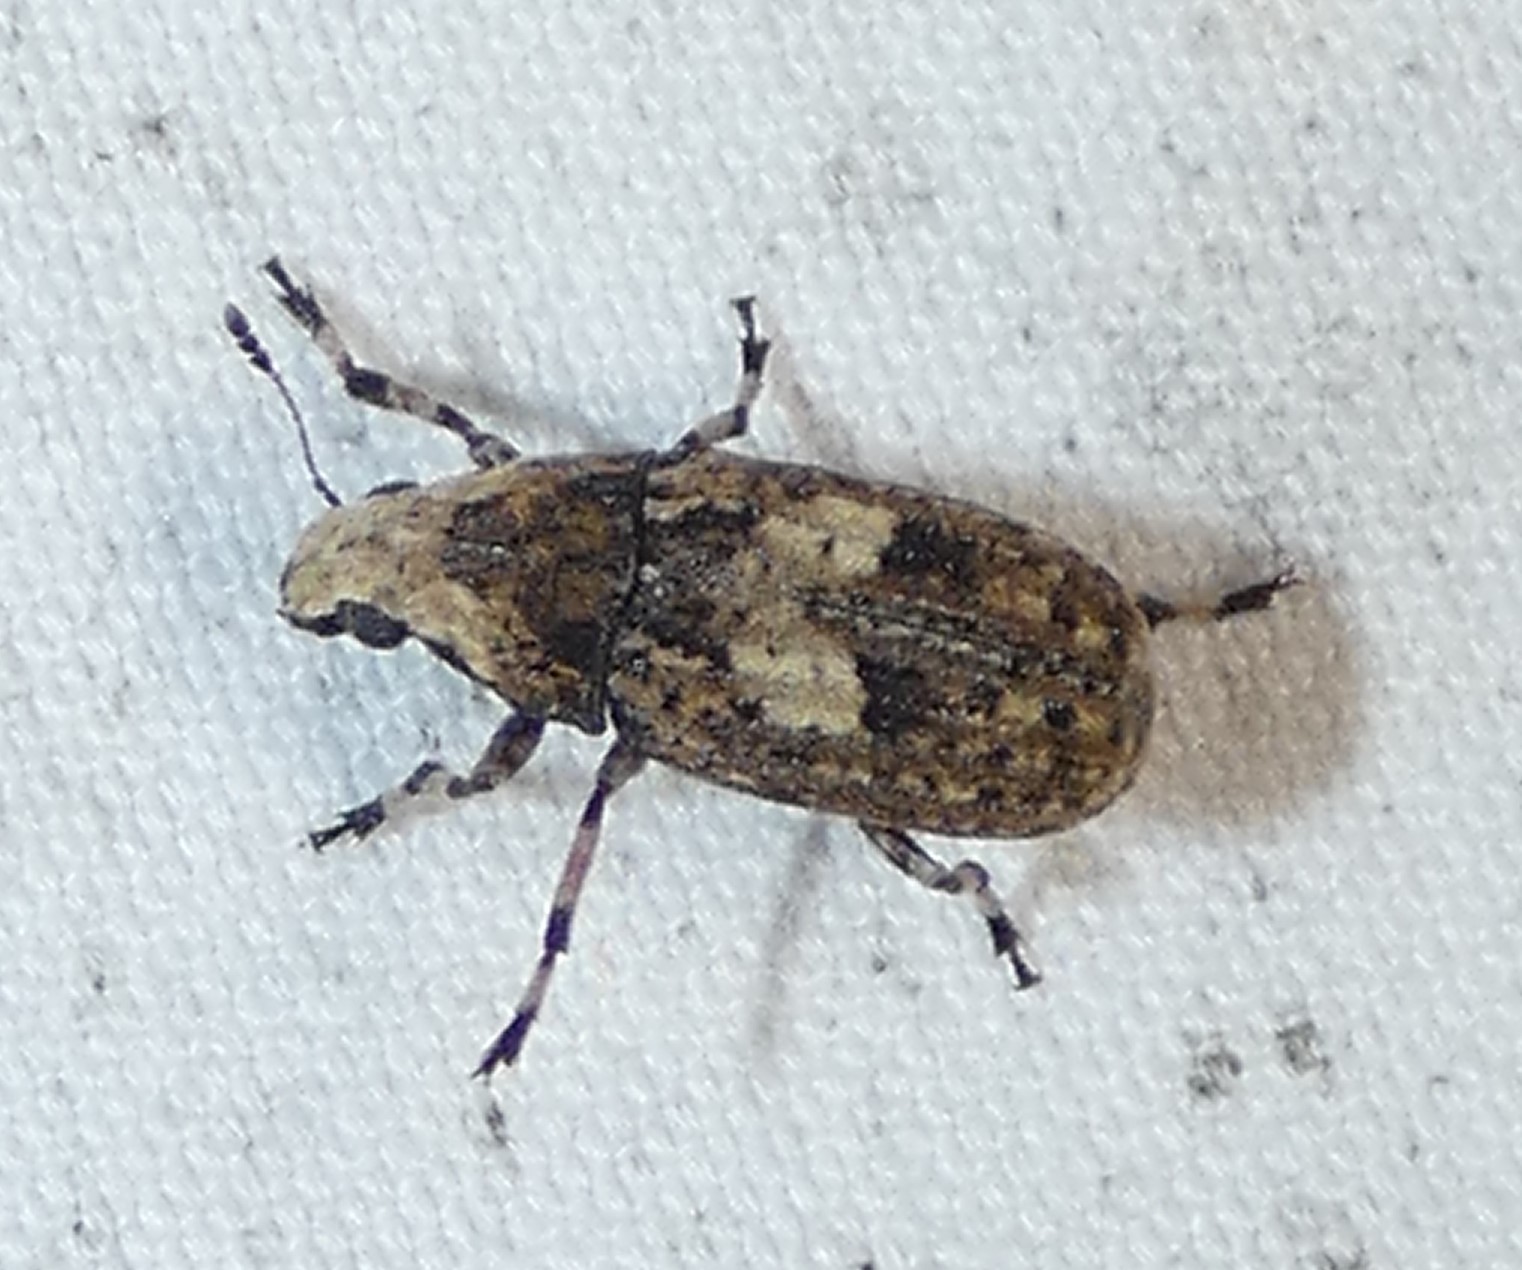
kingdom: Animalia
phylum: Arthropoda
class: Insecta
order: Coleoptera
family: Anthribidae
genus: Euparius
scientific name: Euparius marmoreus
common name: Marbled fungus weevil
